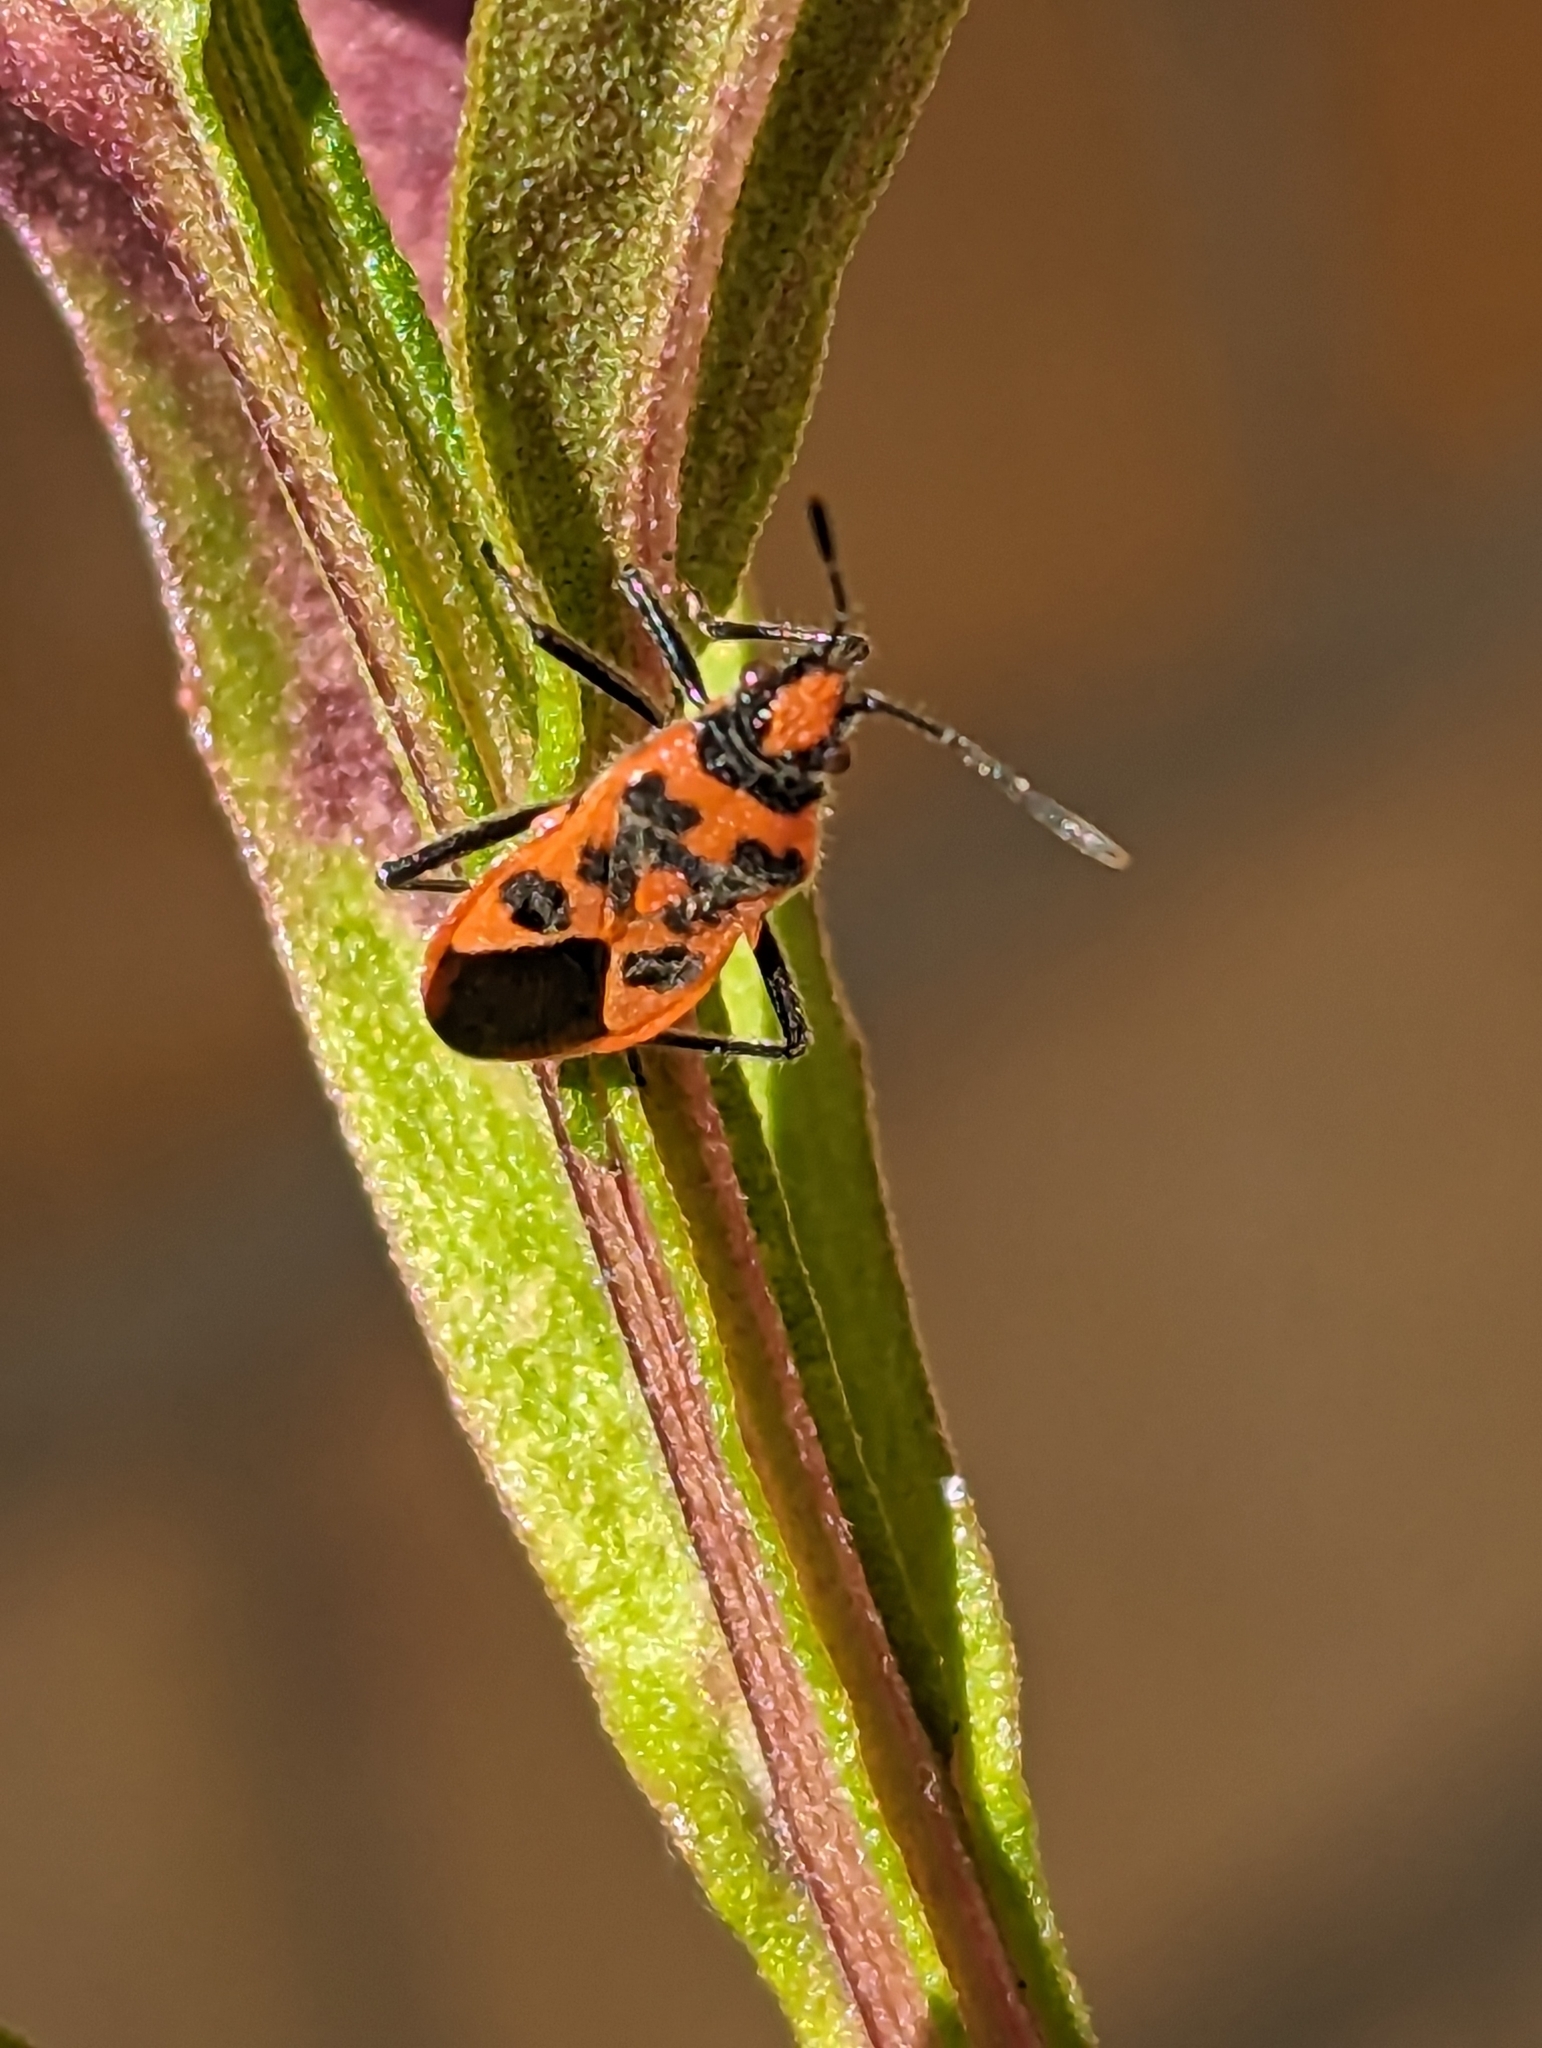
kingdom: Animalia
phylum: Arthropoda
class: Insecta
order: Hemiptera
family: Rhopalidae
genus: Corizus
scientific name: Corizus hyoscyami
